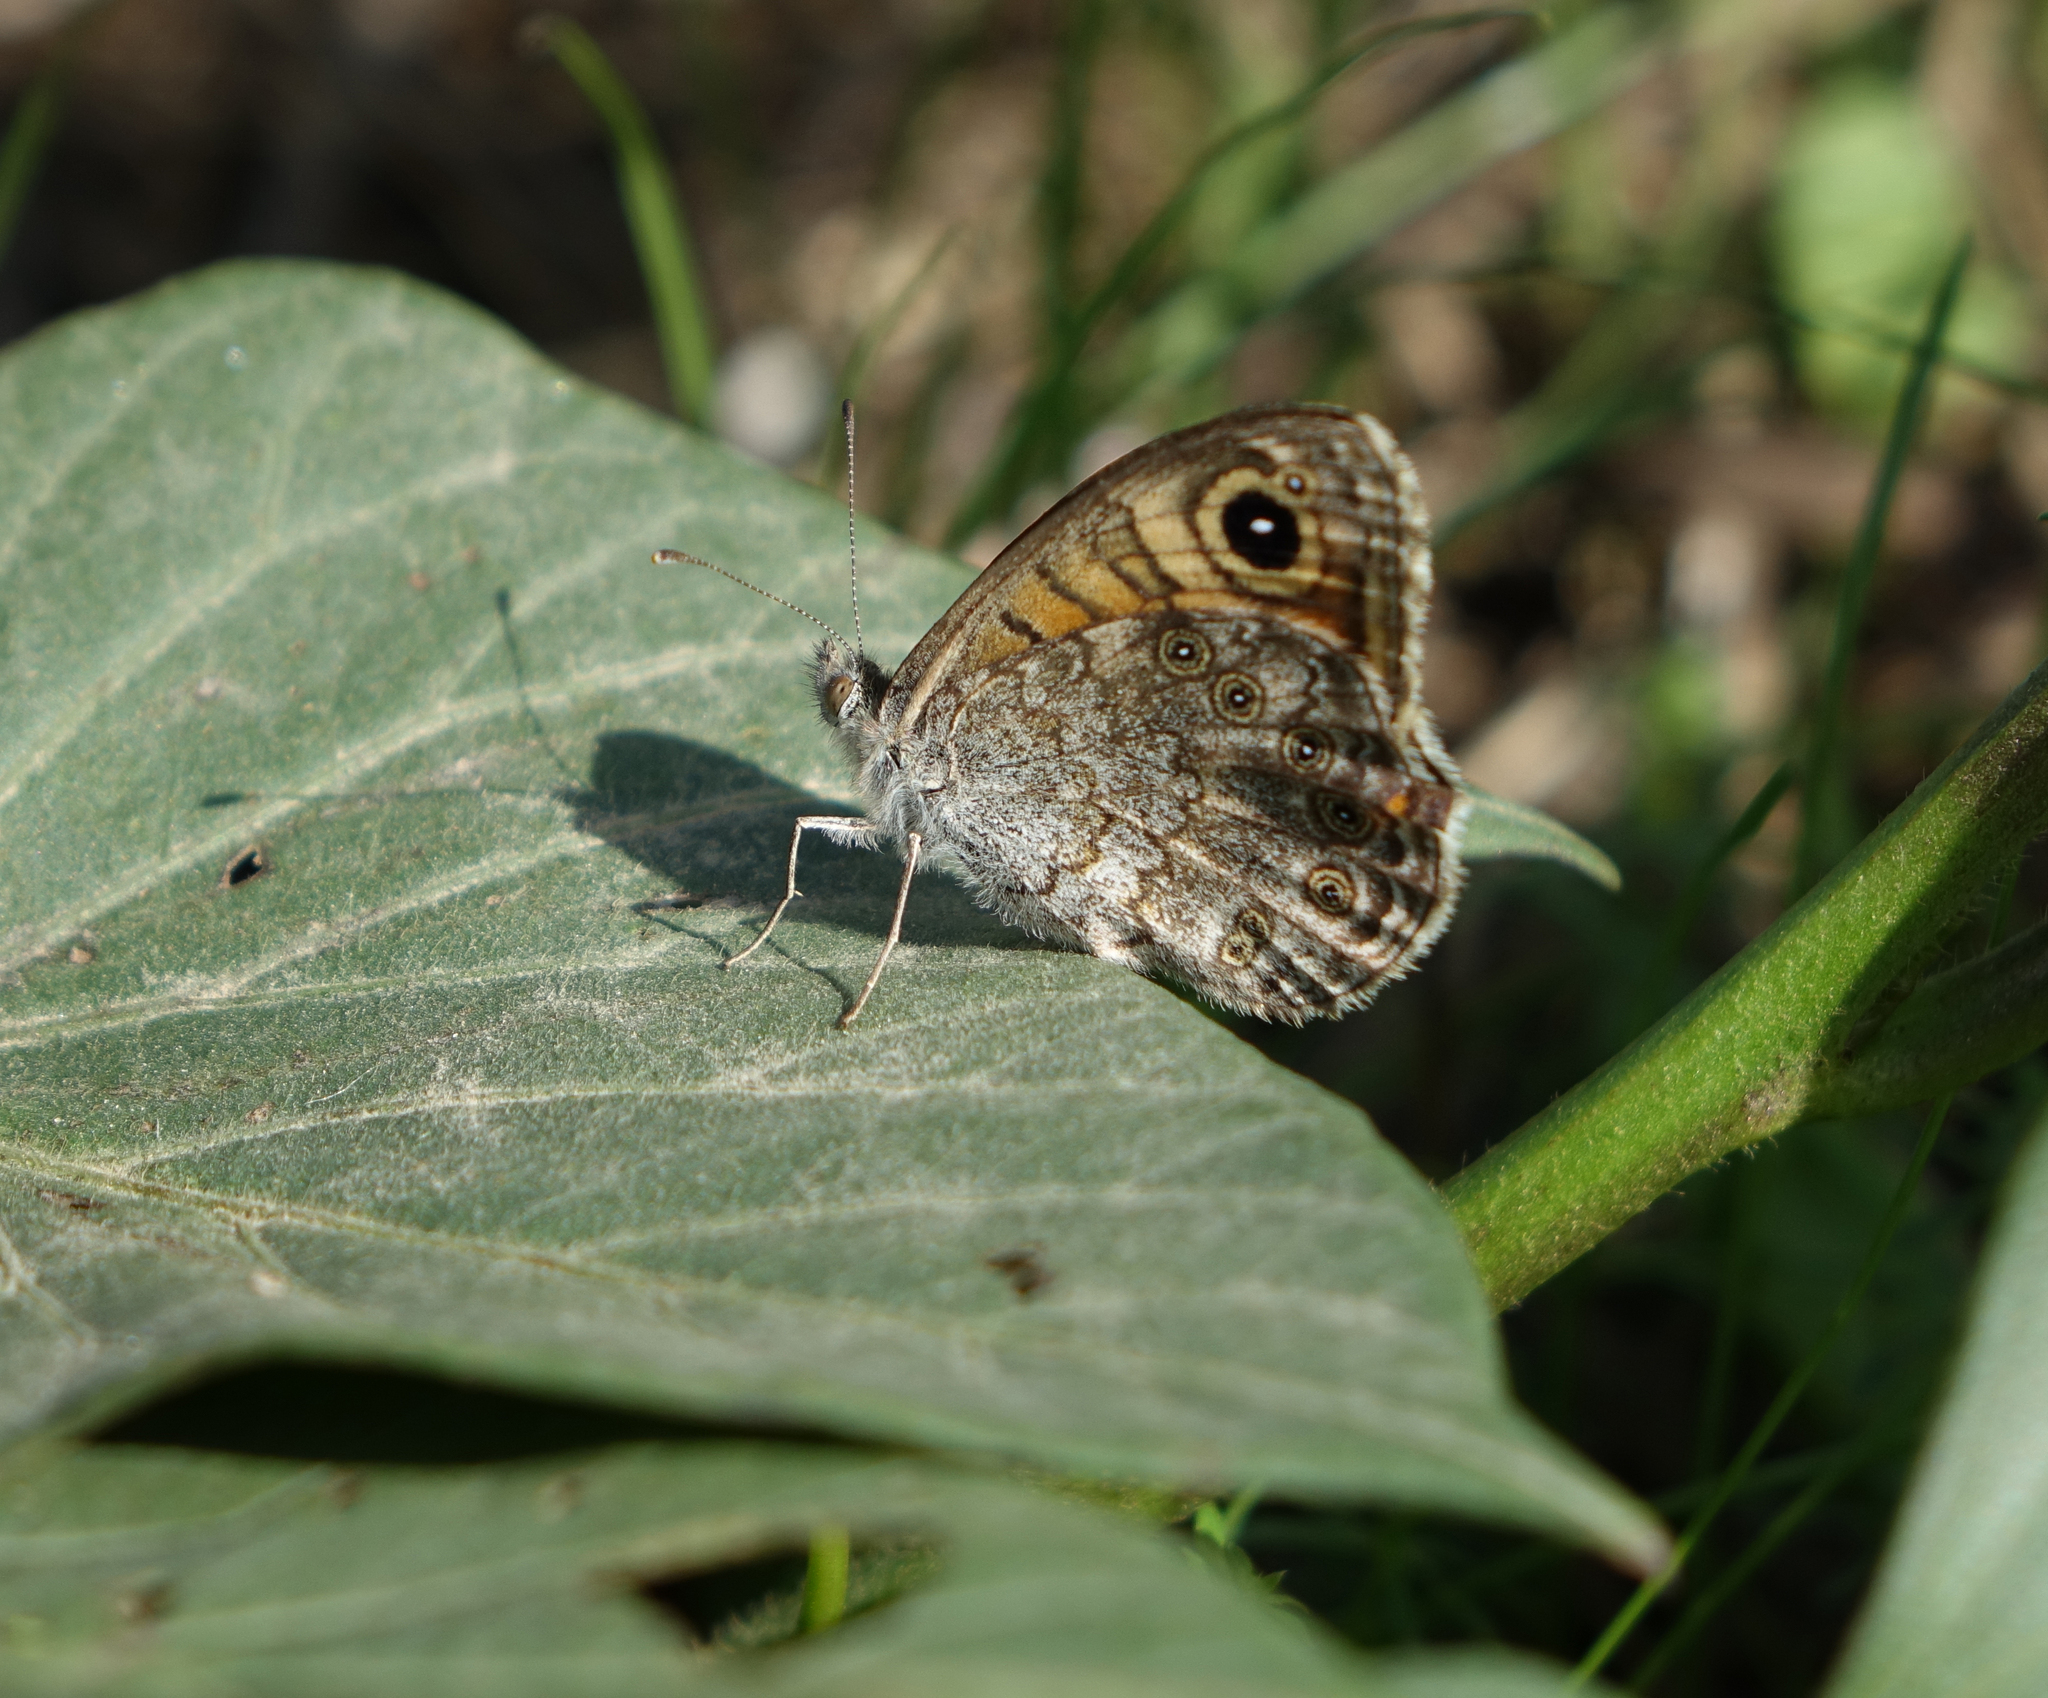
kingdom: Animalia
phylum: Arthropoda
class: Insecta
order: Lepidoptera
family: Nymphalidae
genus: Pararge
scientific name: Pararge Lasiommata megera
